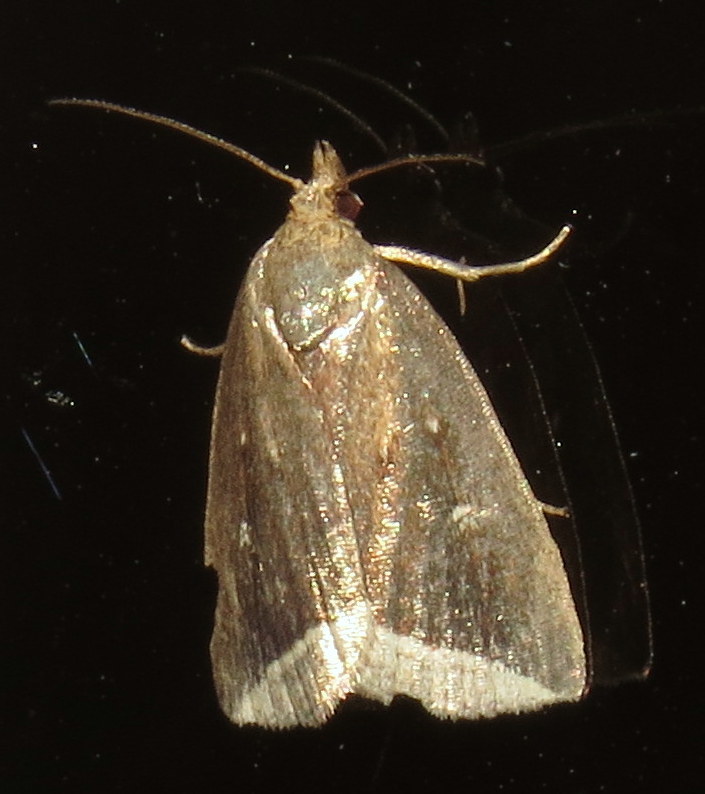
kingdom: Animalia
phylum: Arthropoda
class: Insecta
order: Lepidoptera
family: Erebidae
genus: Capis
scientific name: Capis curvata
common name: Curved halter moth
